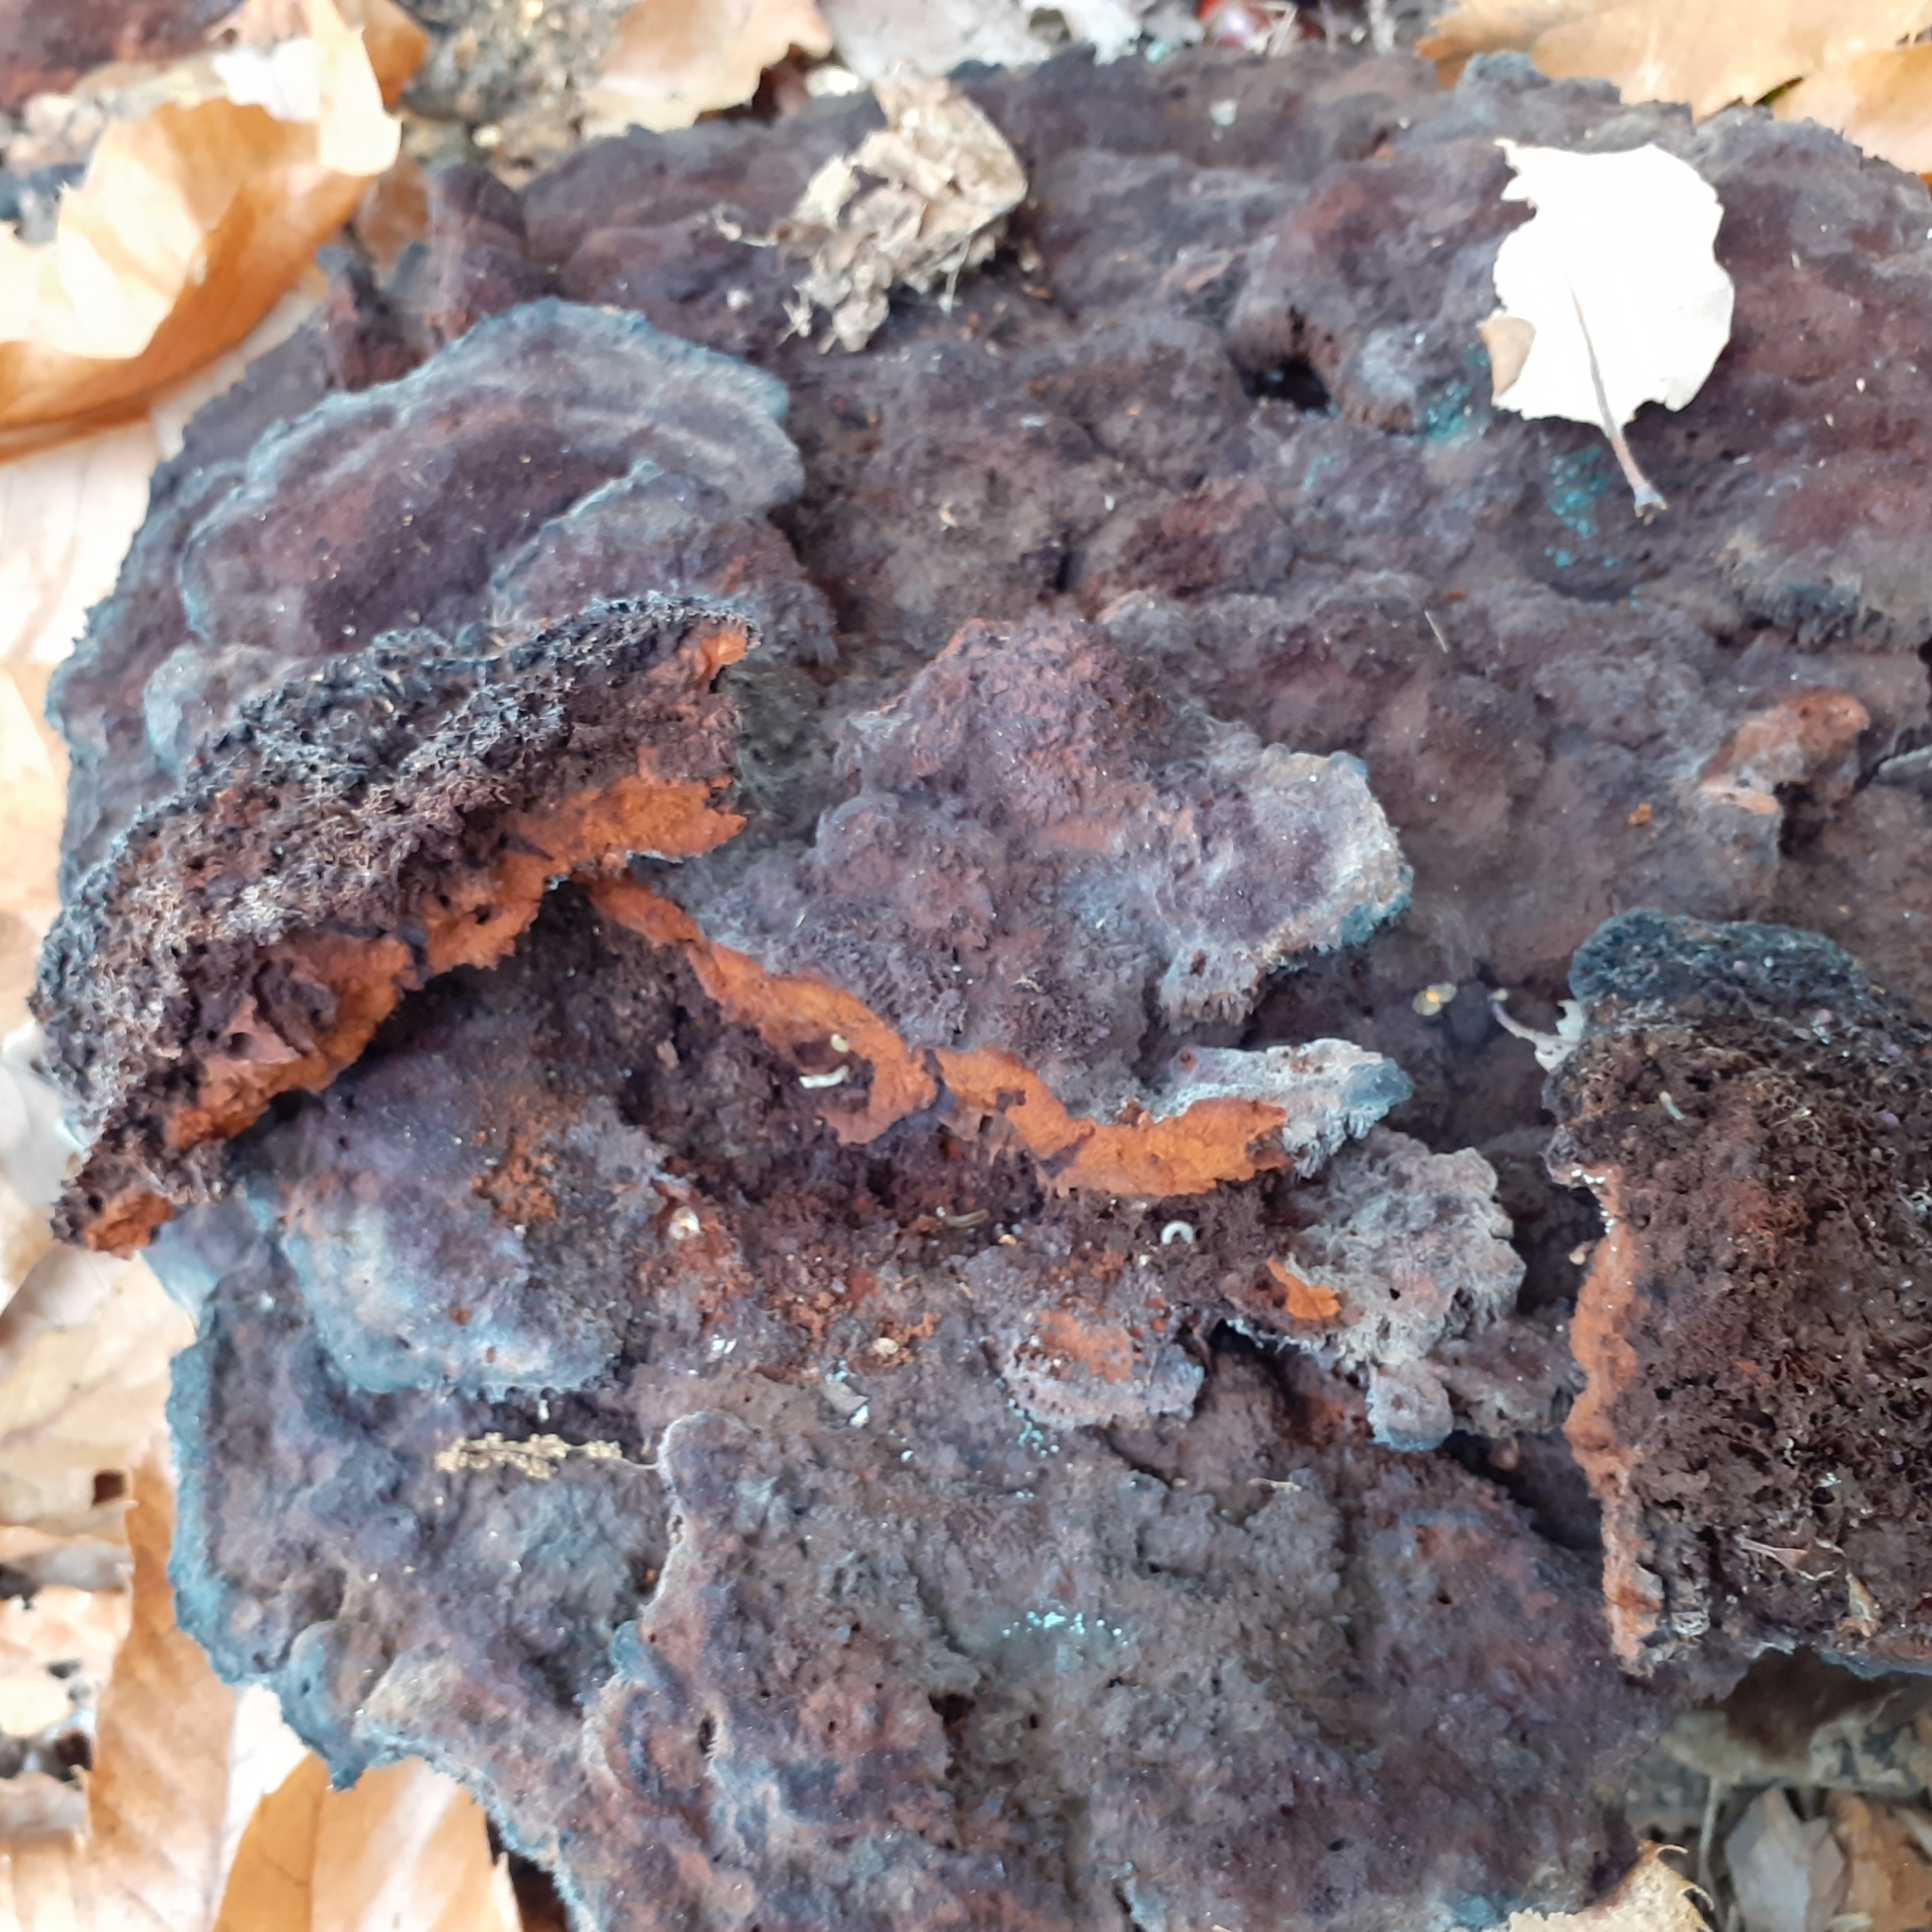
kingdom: Fungi
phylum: Basidiomycota
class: Agaricomycetes
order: Polyporales
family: Laetiporaceae
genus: Phaeolus
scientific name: Phaeolus schweinitzii
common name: Dyer's mazegill
